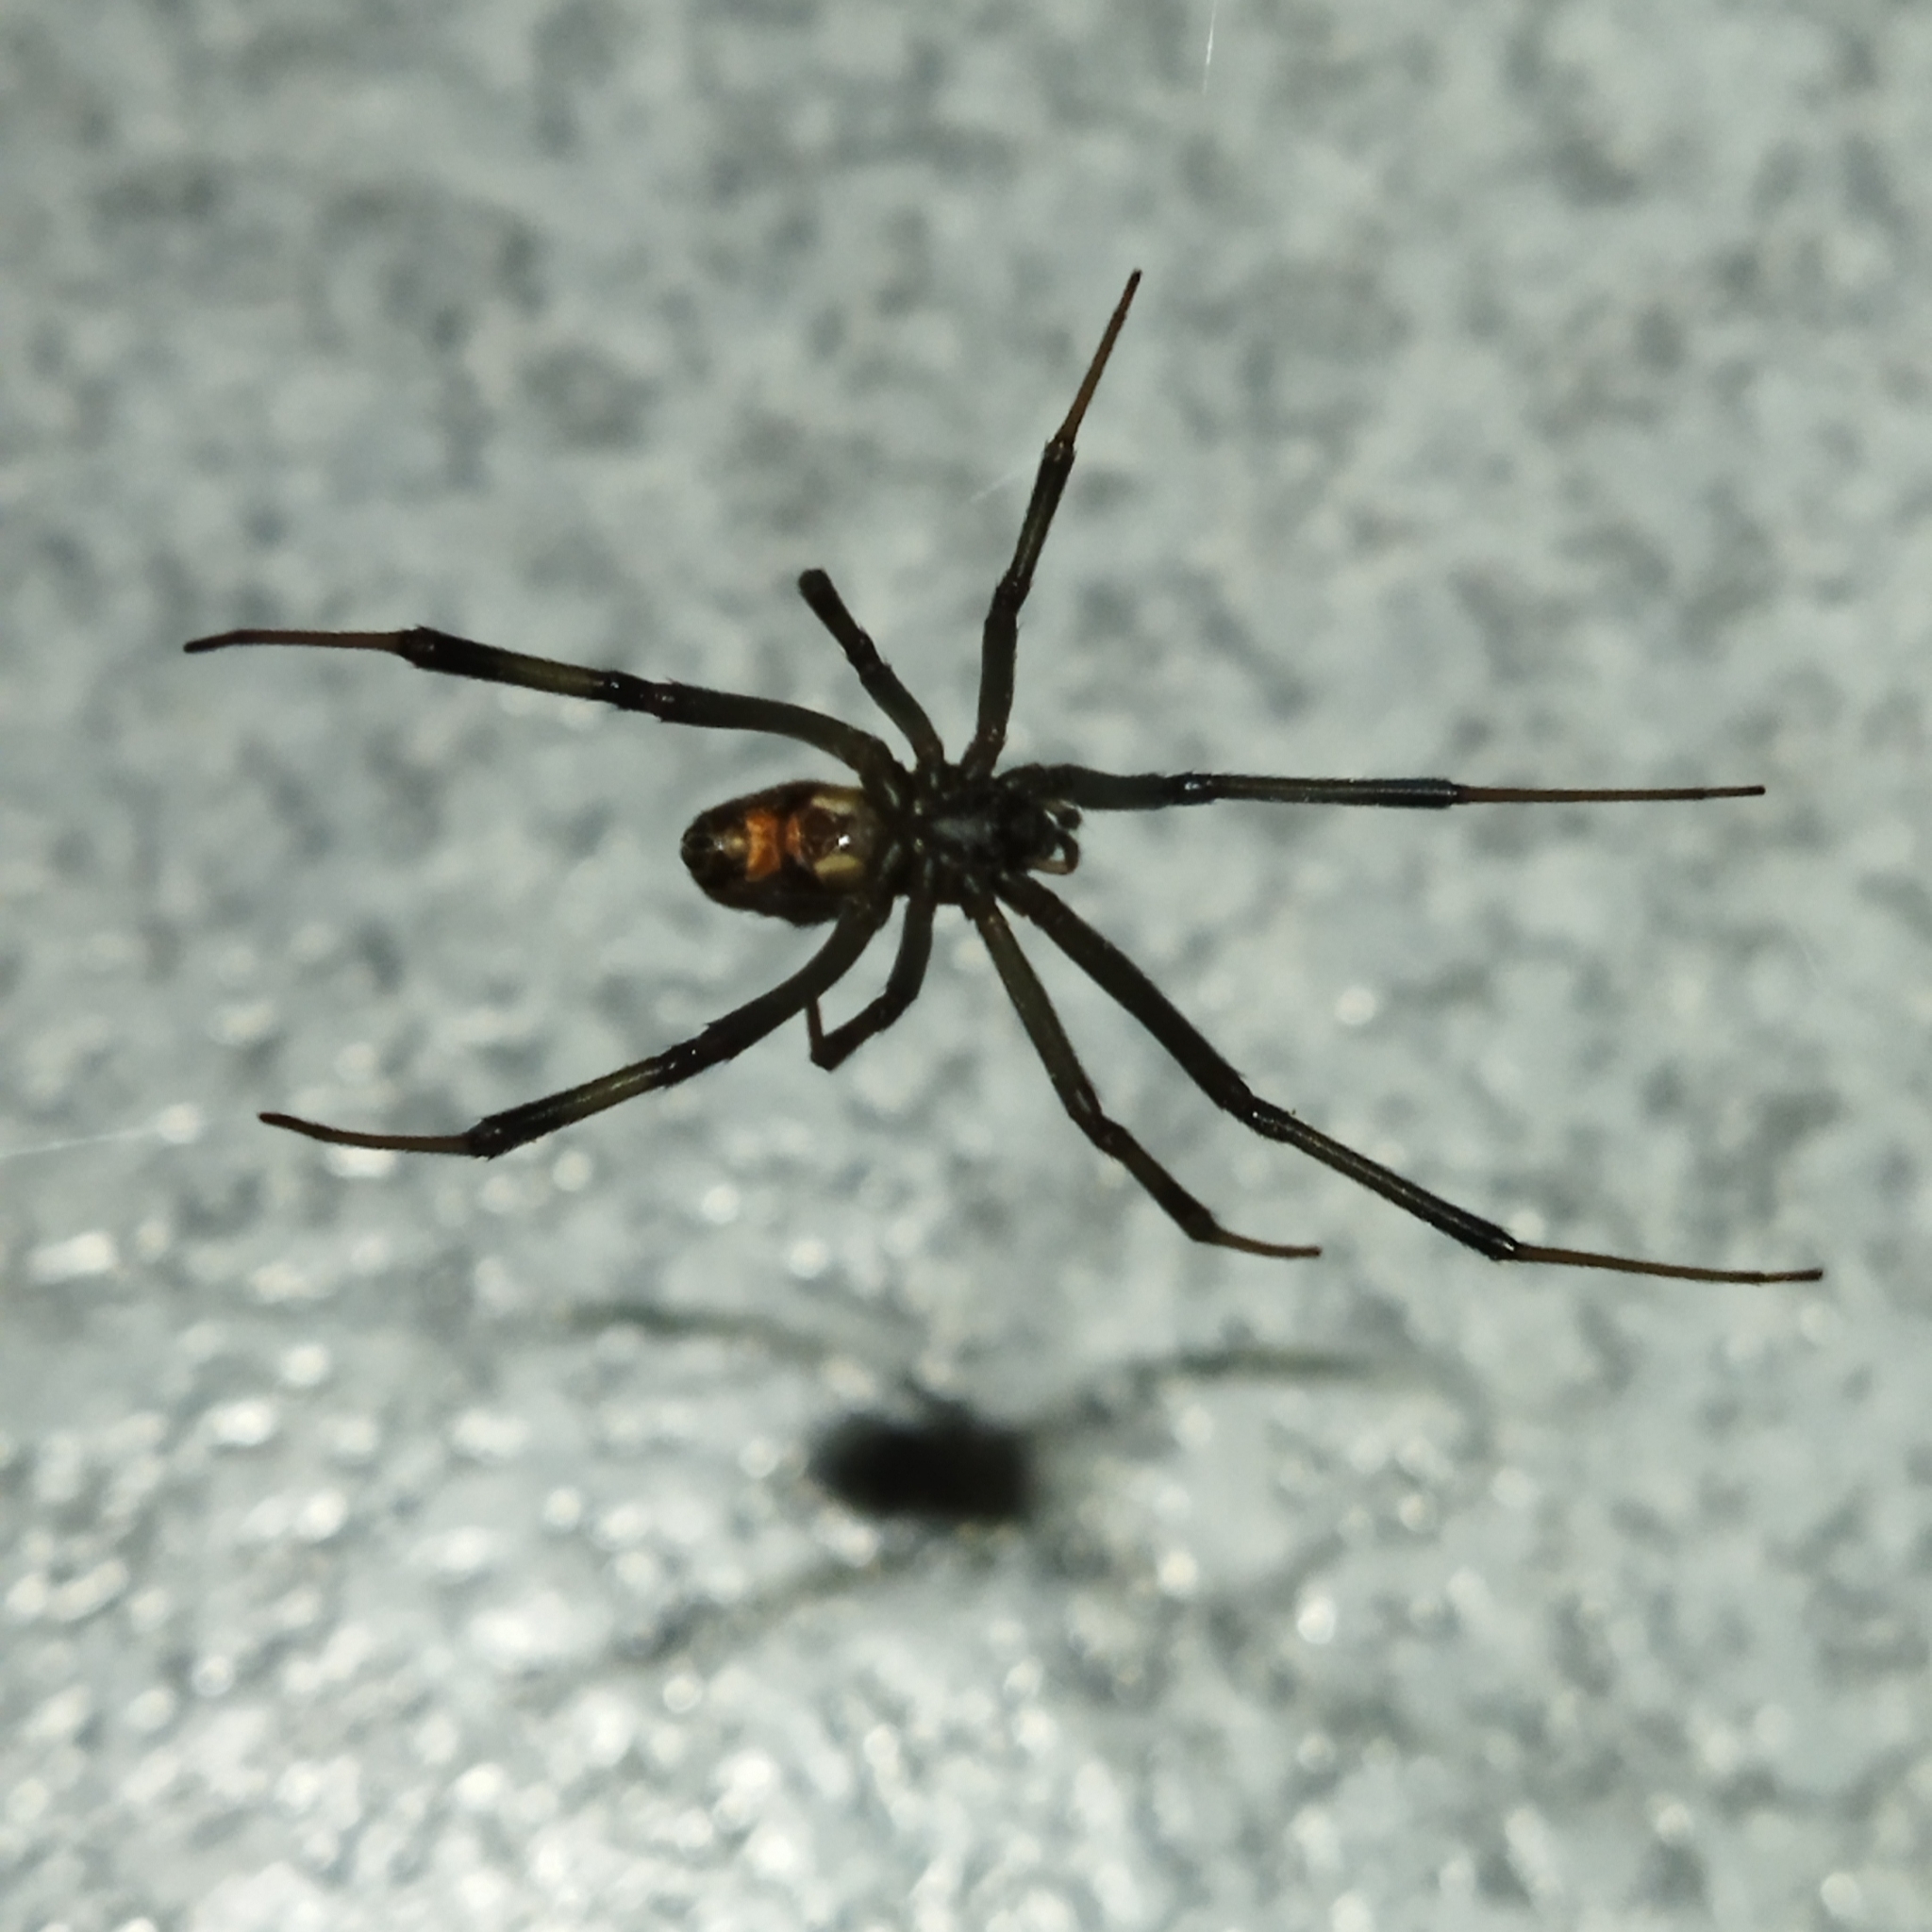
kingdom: Animalia
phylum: Arthropoda
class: Arachnida
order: Araneae
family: Theridiidae
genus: Latrodectus
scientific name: Latrodectus renivulvatus
